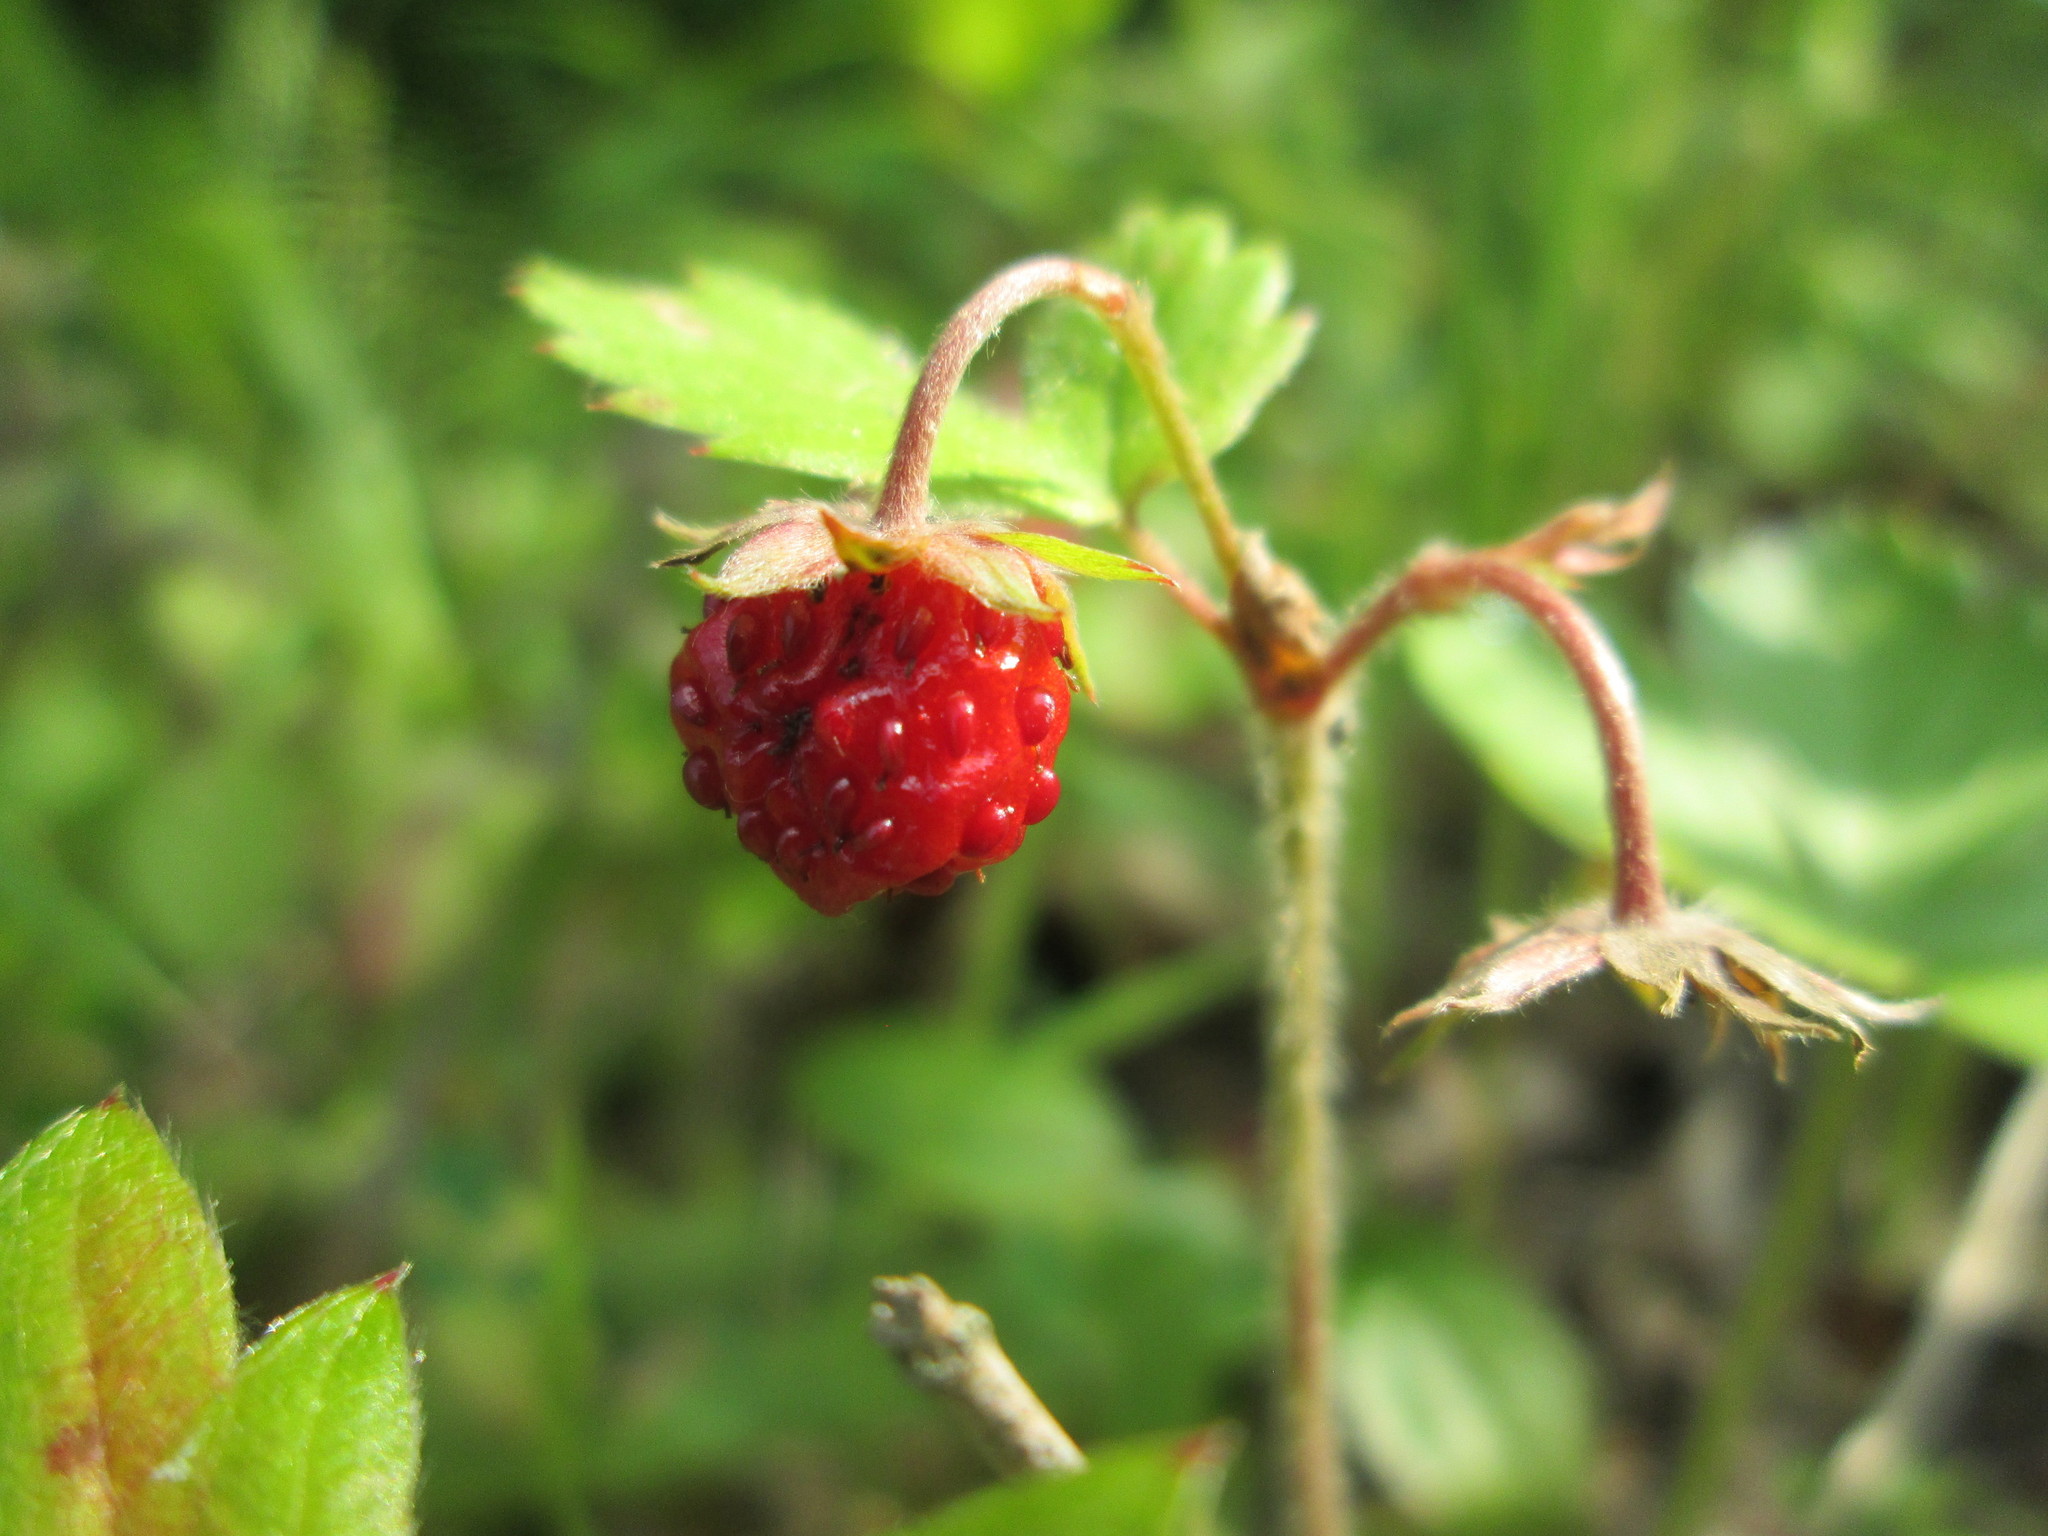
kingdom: Plantae
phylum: Tracheophyta
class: Magnoliopsida
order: Rosales
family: Rosaceae
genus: Fragaria
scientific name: Fragaria vesca
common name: Wild strawberry
